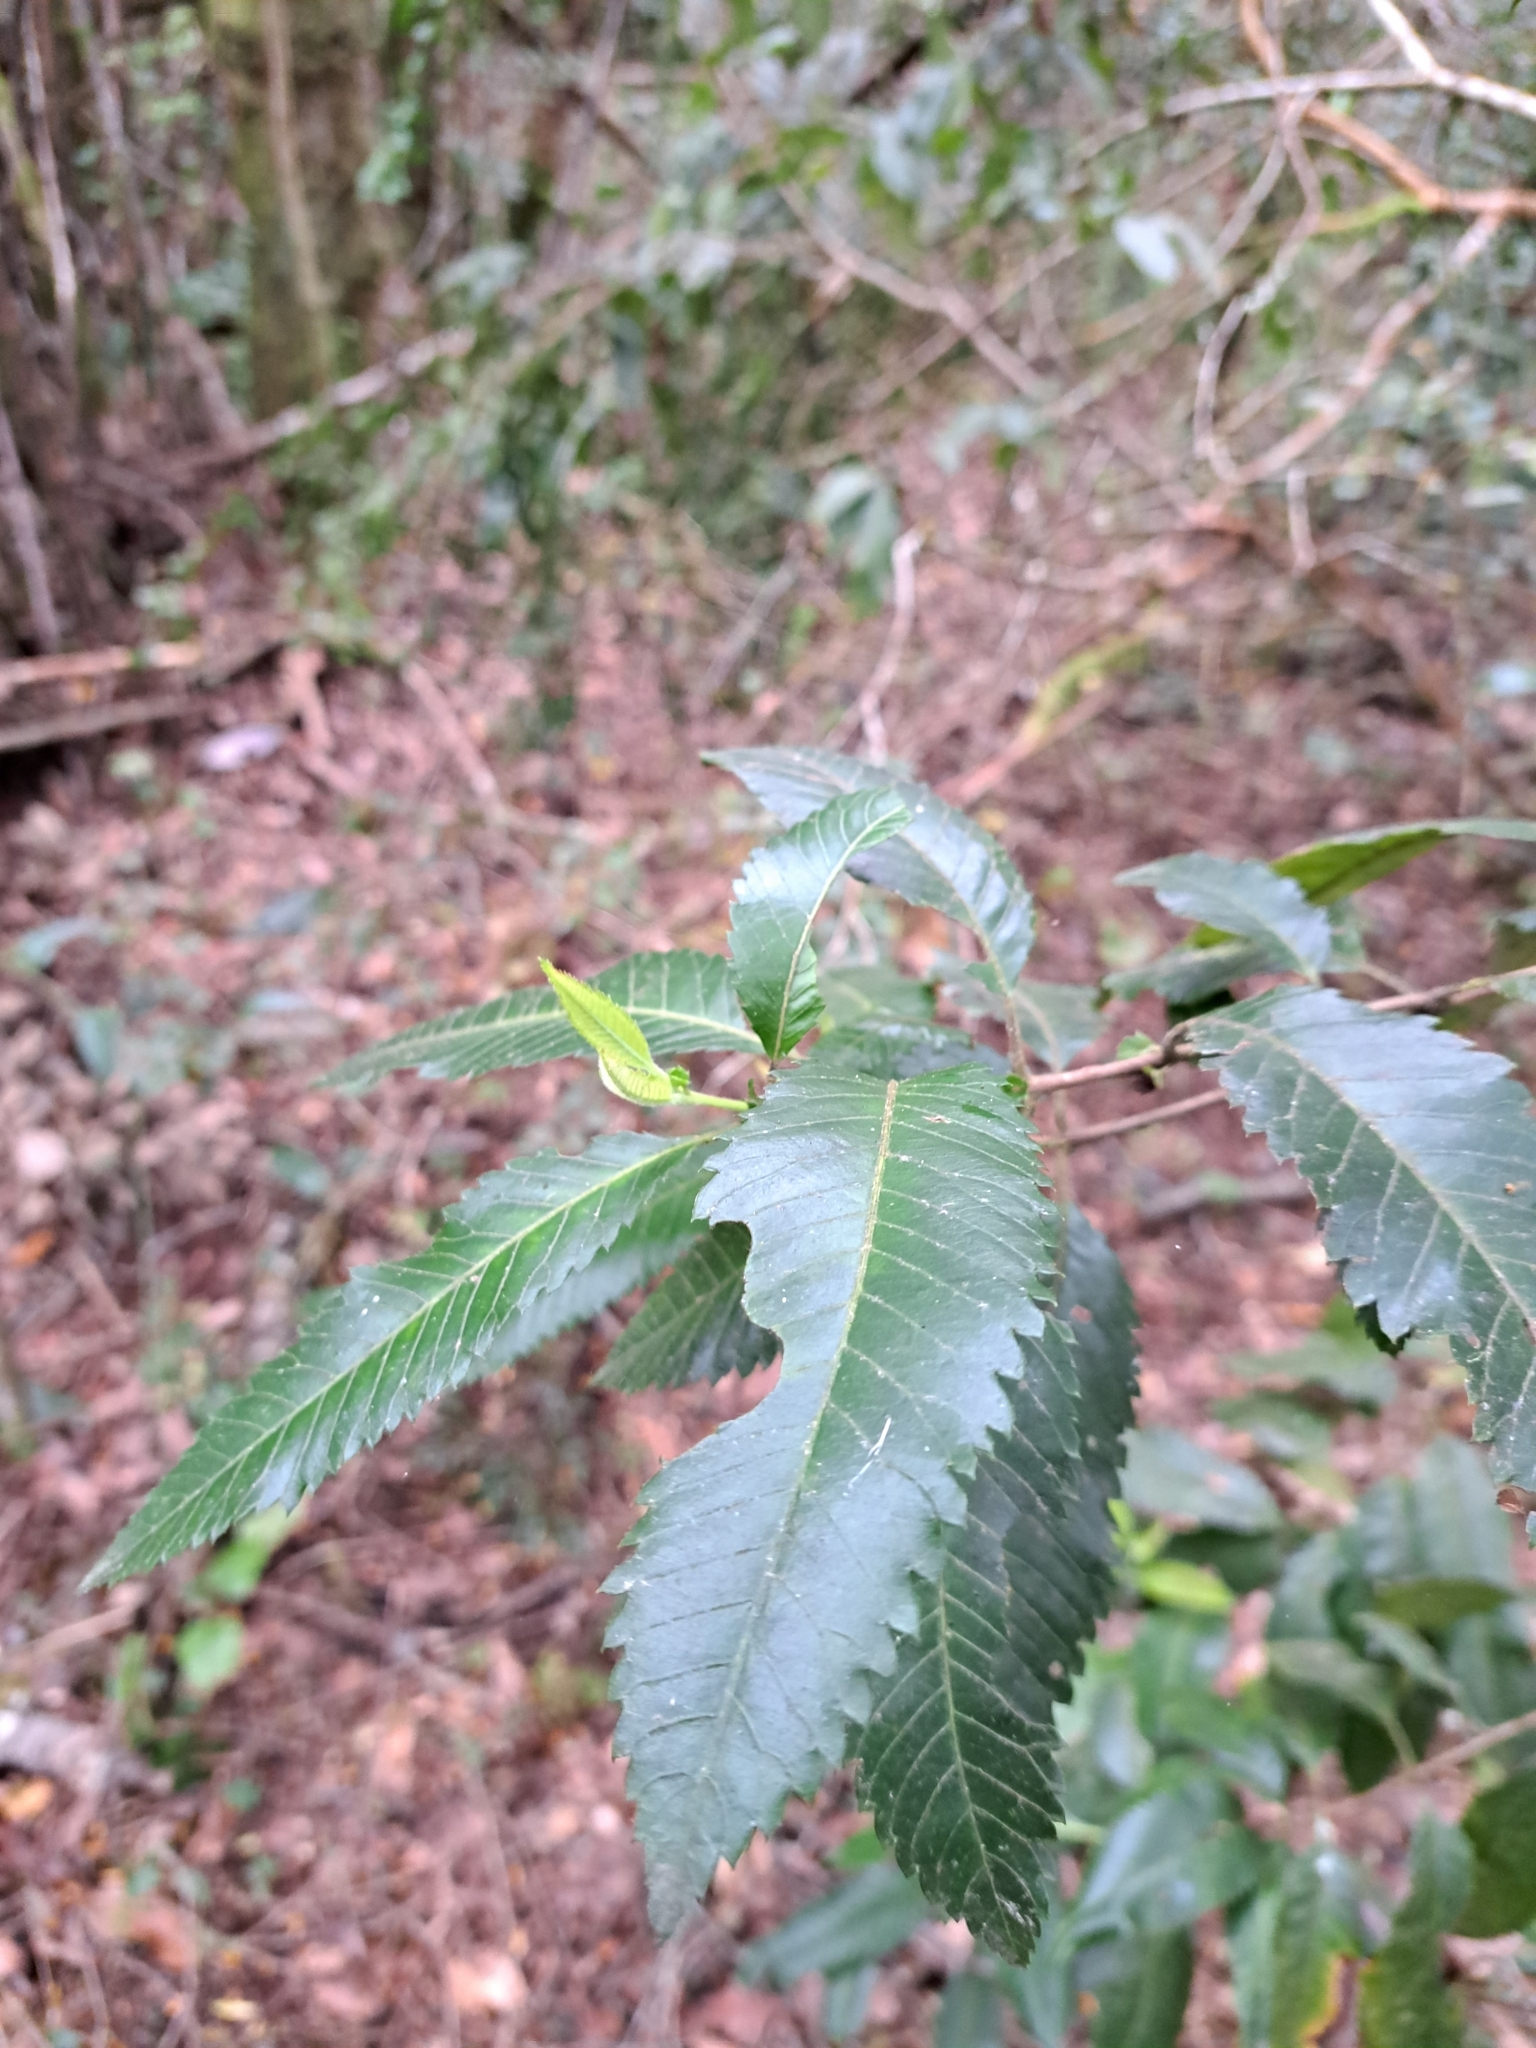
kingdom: Plantae
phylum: Tracheophyta
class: Magnoliopsida
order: Oxalidales
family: Cunoniaceae
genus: Caldcluvia
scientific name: Caldcluvia paniculata
